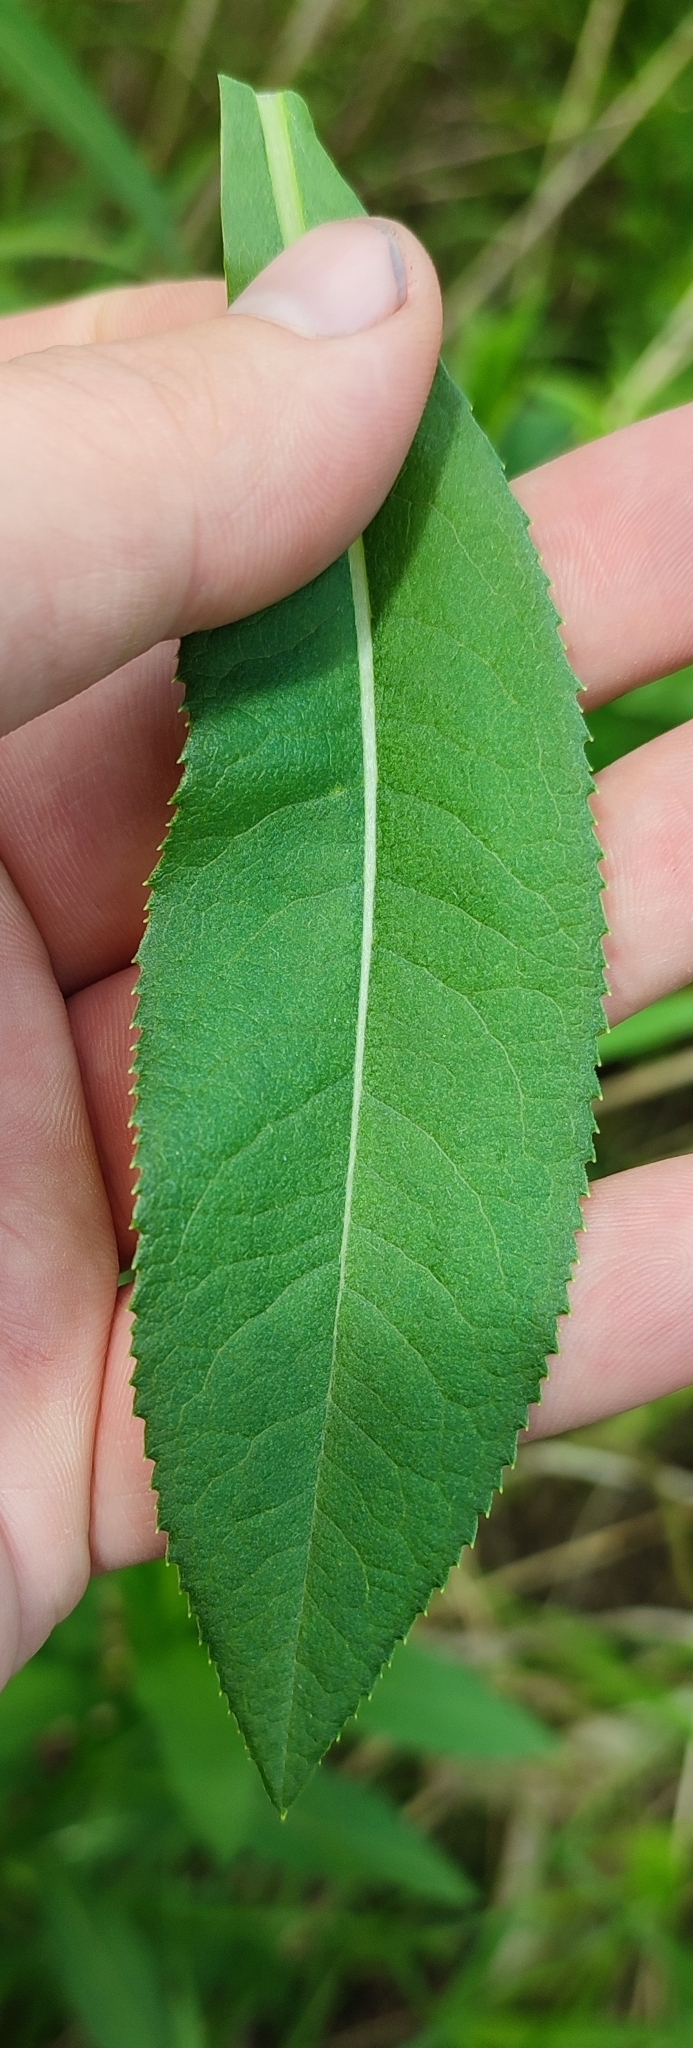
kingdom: Plantae
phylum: Tracheophyta
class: Magnoliopsida
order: Asterales
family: Asteraceae
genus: Senecio
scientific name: Senecio sarracenicus
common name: Broad-leaved ragwort
